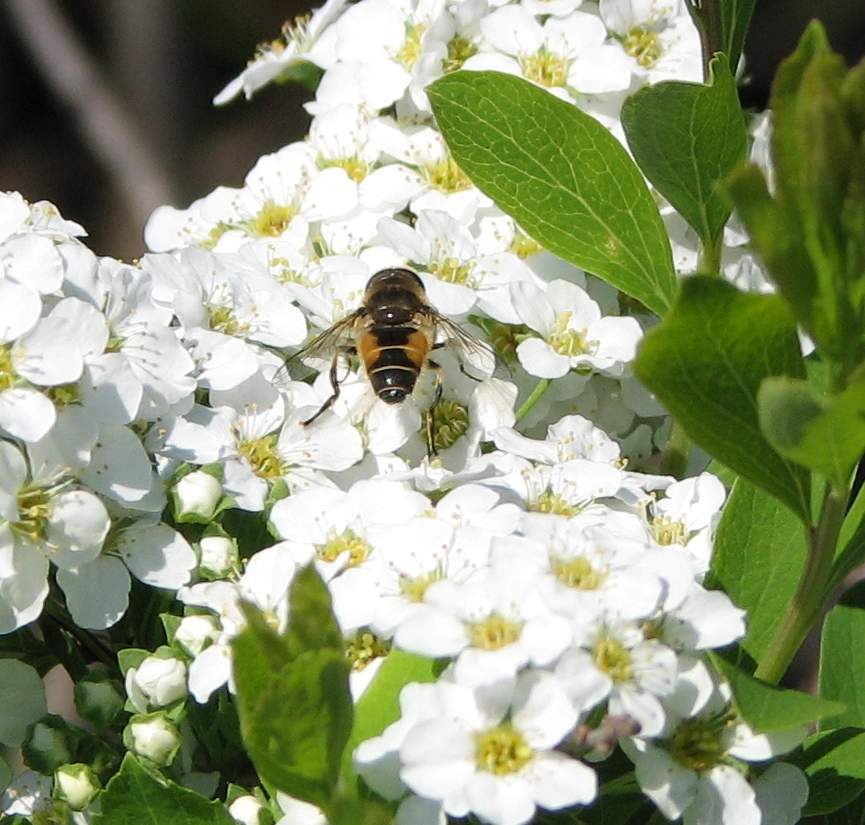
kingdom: Animalia
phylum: Arthropoda
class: Insecta
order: Diptera
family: Syrphidae
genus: Eristalis
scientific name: Eristalis arbustorum
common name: Hover fly
